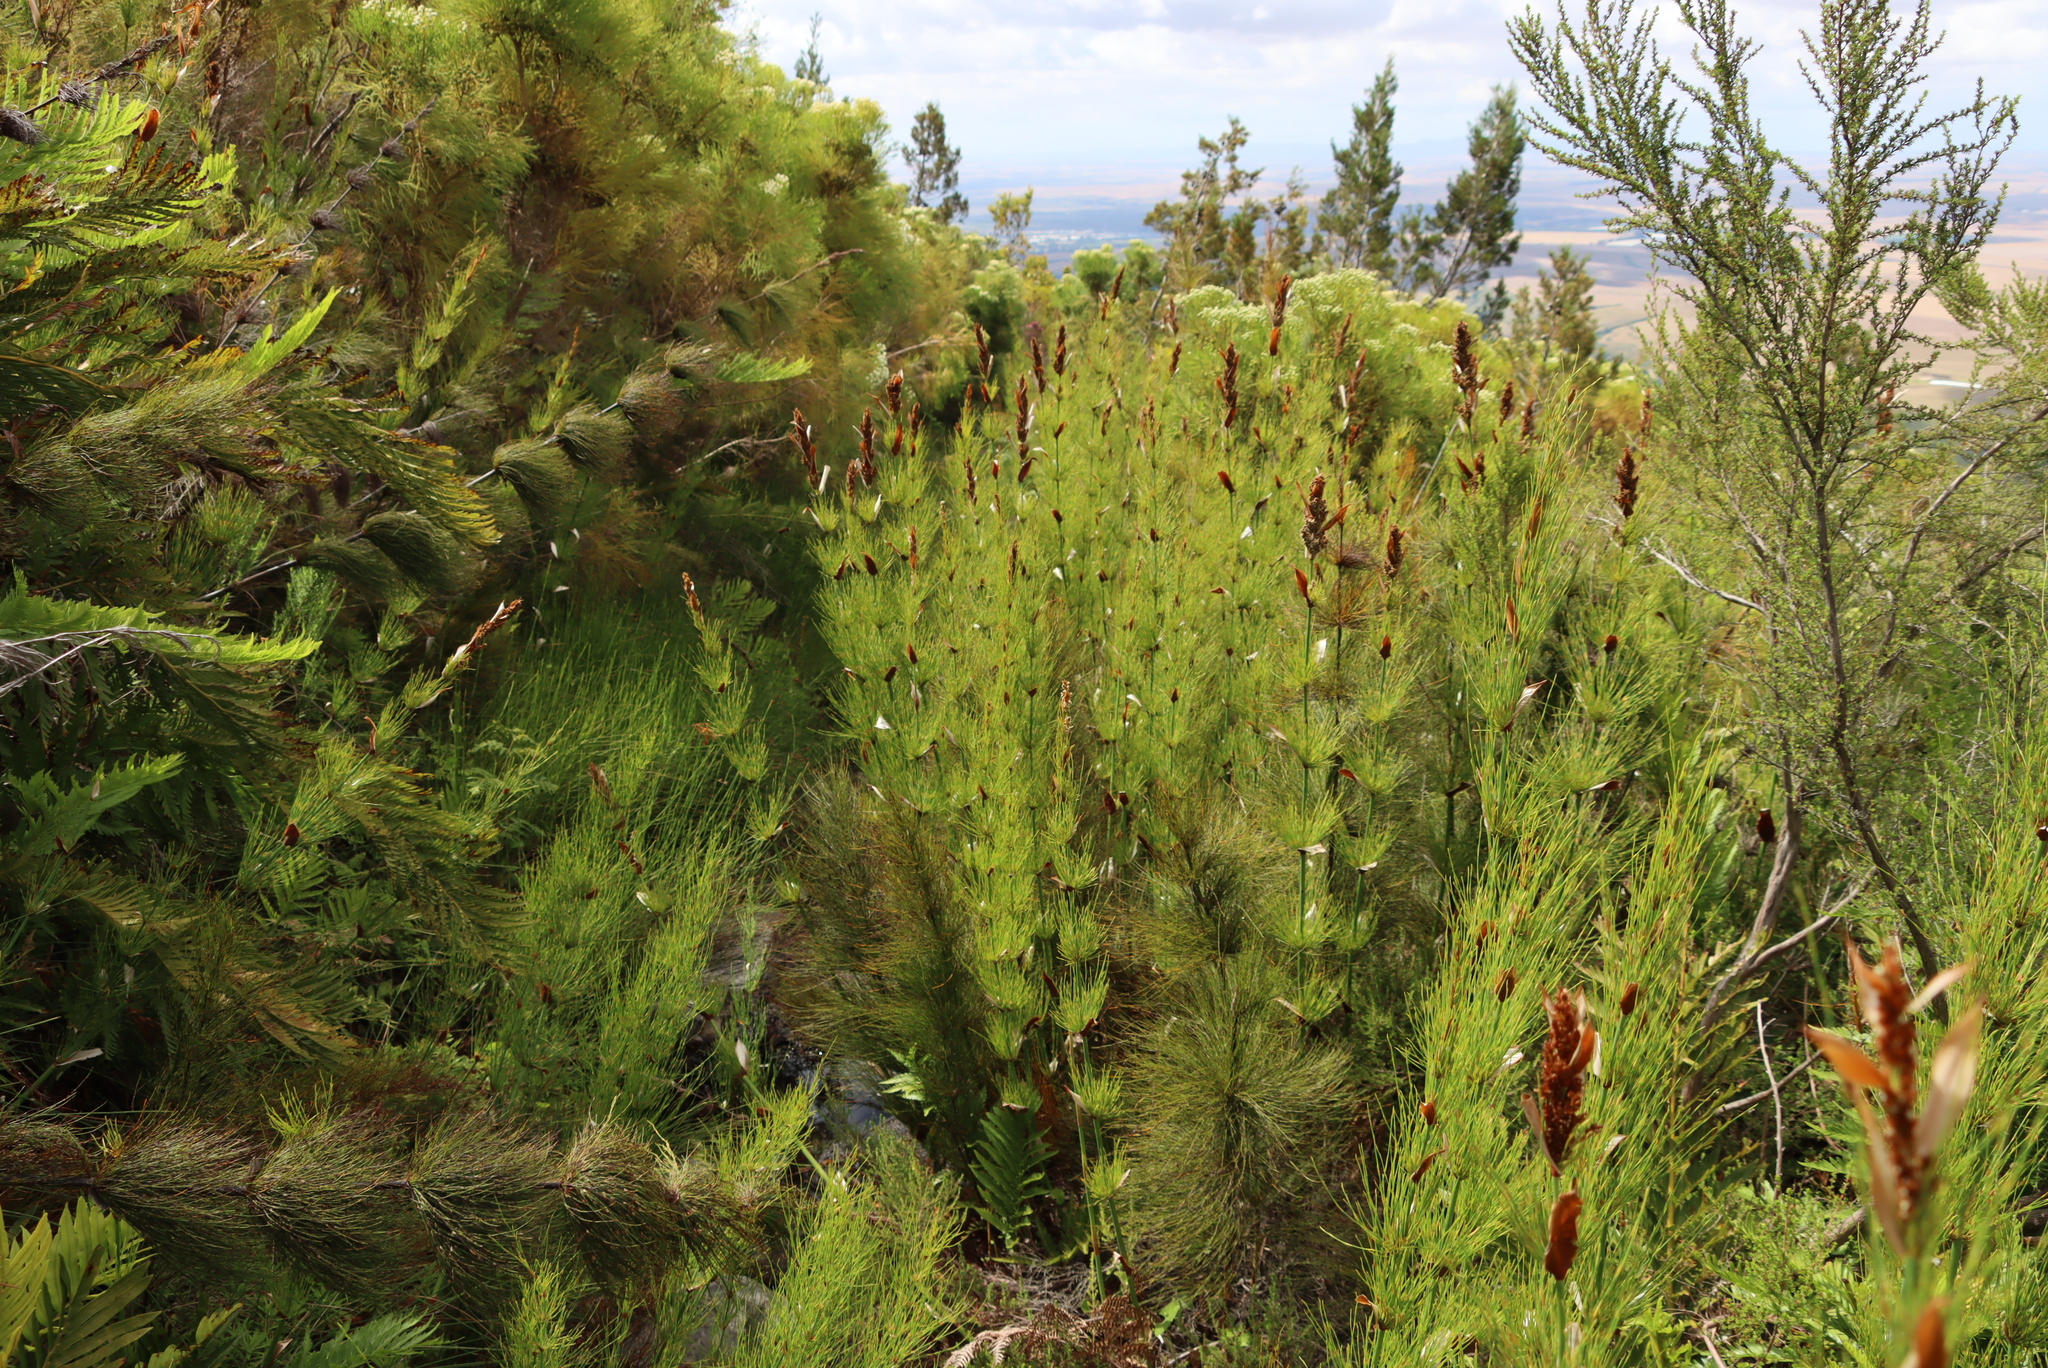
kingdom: Plantae
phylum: Tracheophyta
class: Liliopsida
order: Poales
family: Restionaceae
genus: Elegia
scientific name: Elegia capensis
